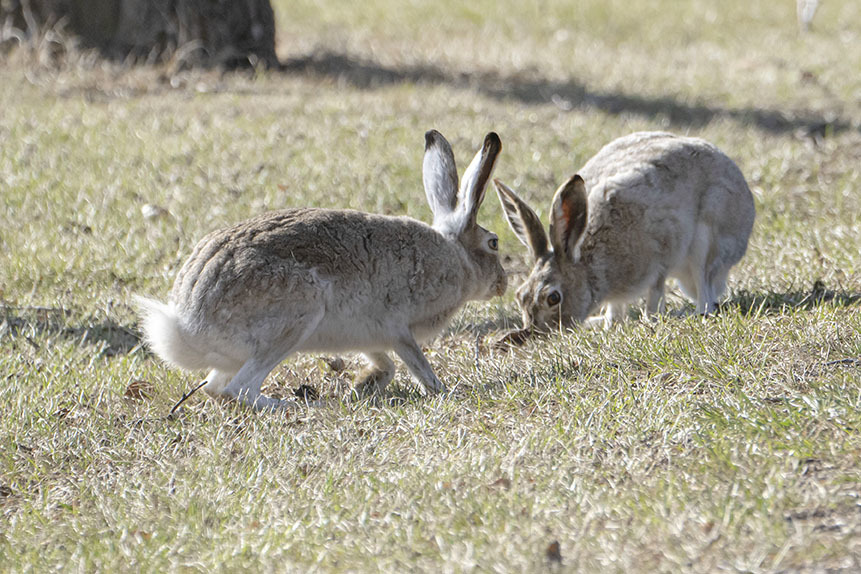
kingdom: Animalia
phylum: Chordata
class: Mammalia
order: Lagomorpha
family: Leporidae
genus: Lepus
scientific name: Lepus townsendii
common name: White-tailed jackrabbit
